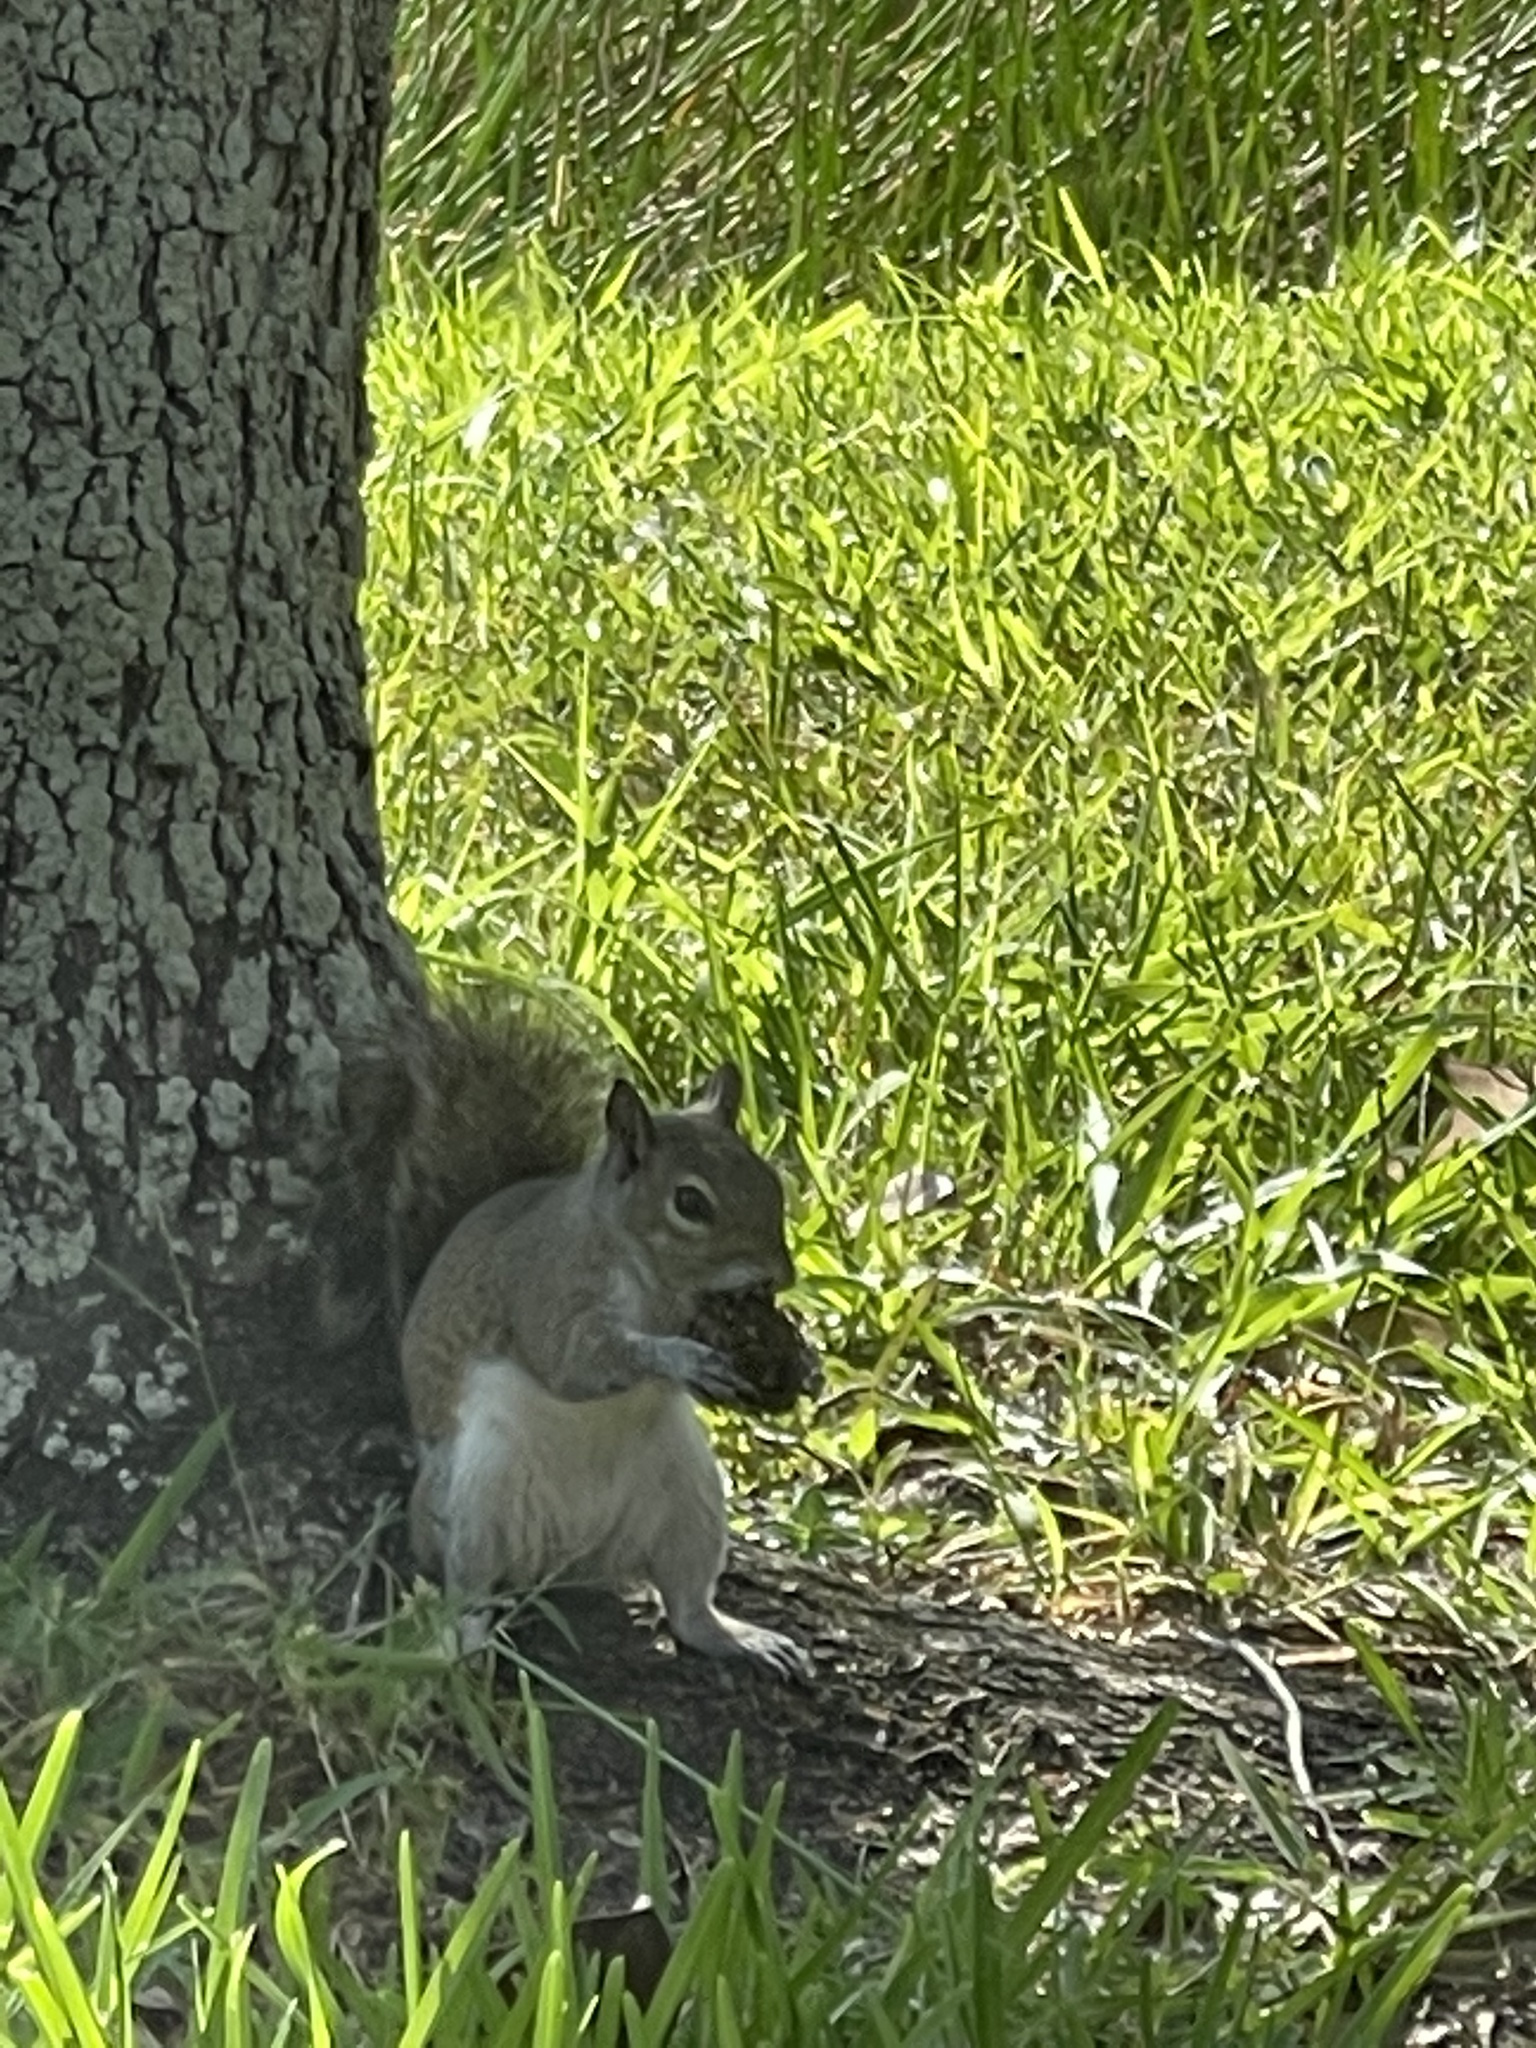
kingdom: Animalia
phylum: Chordata
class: Mammalia
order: Rodentia
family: Sciuridae
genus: Sciurus
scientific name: Sciurus carolinensis
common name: Eastern gray squirrel
